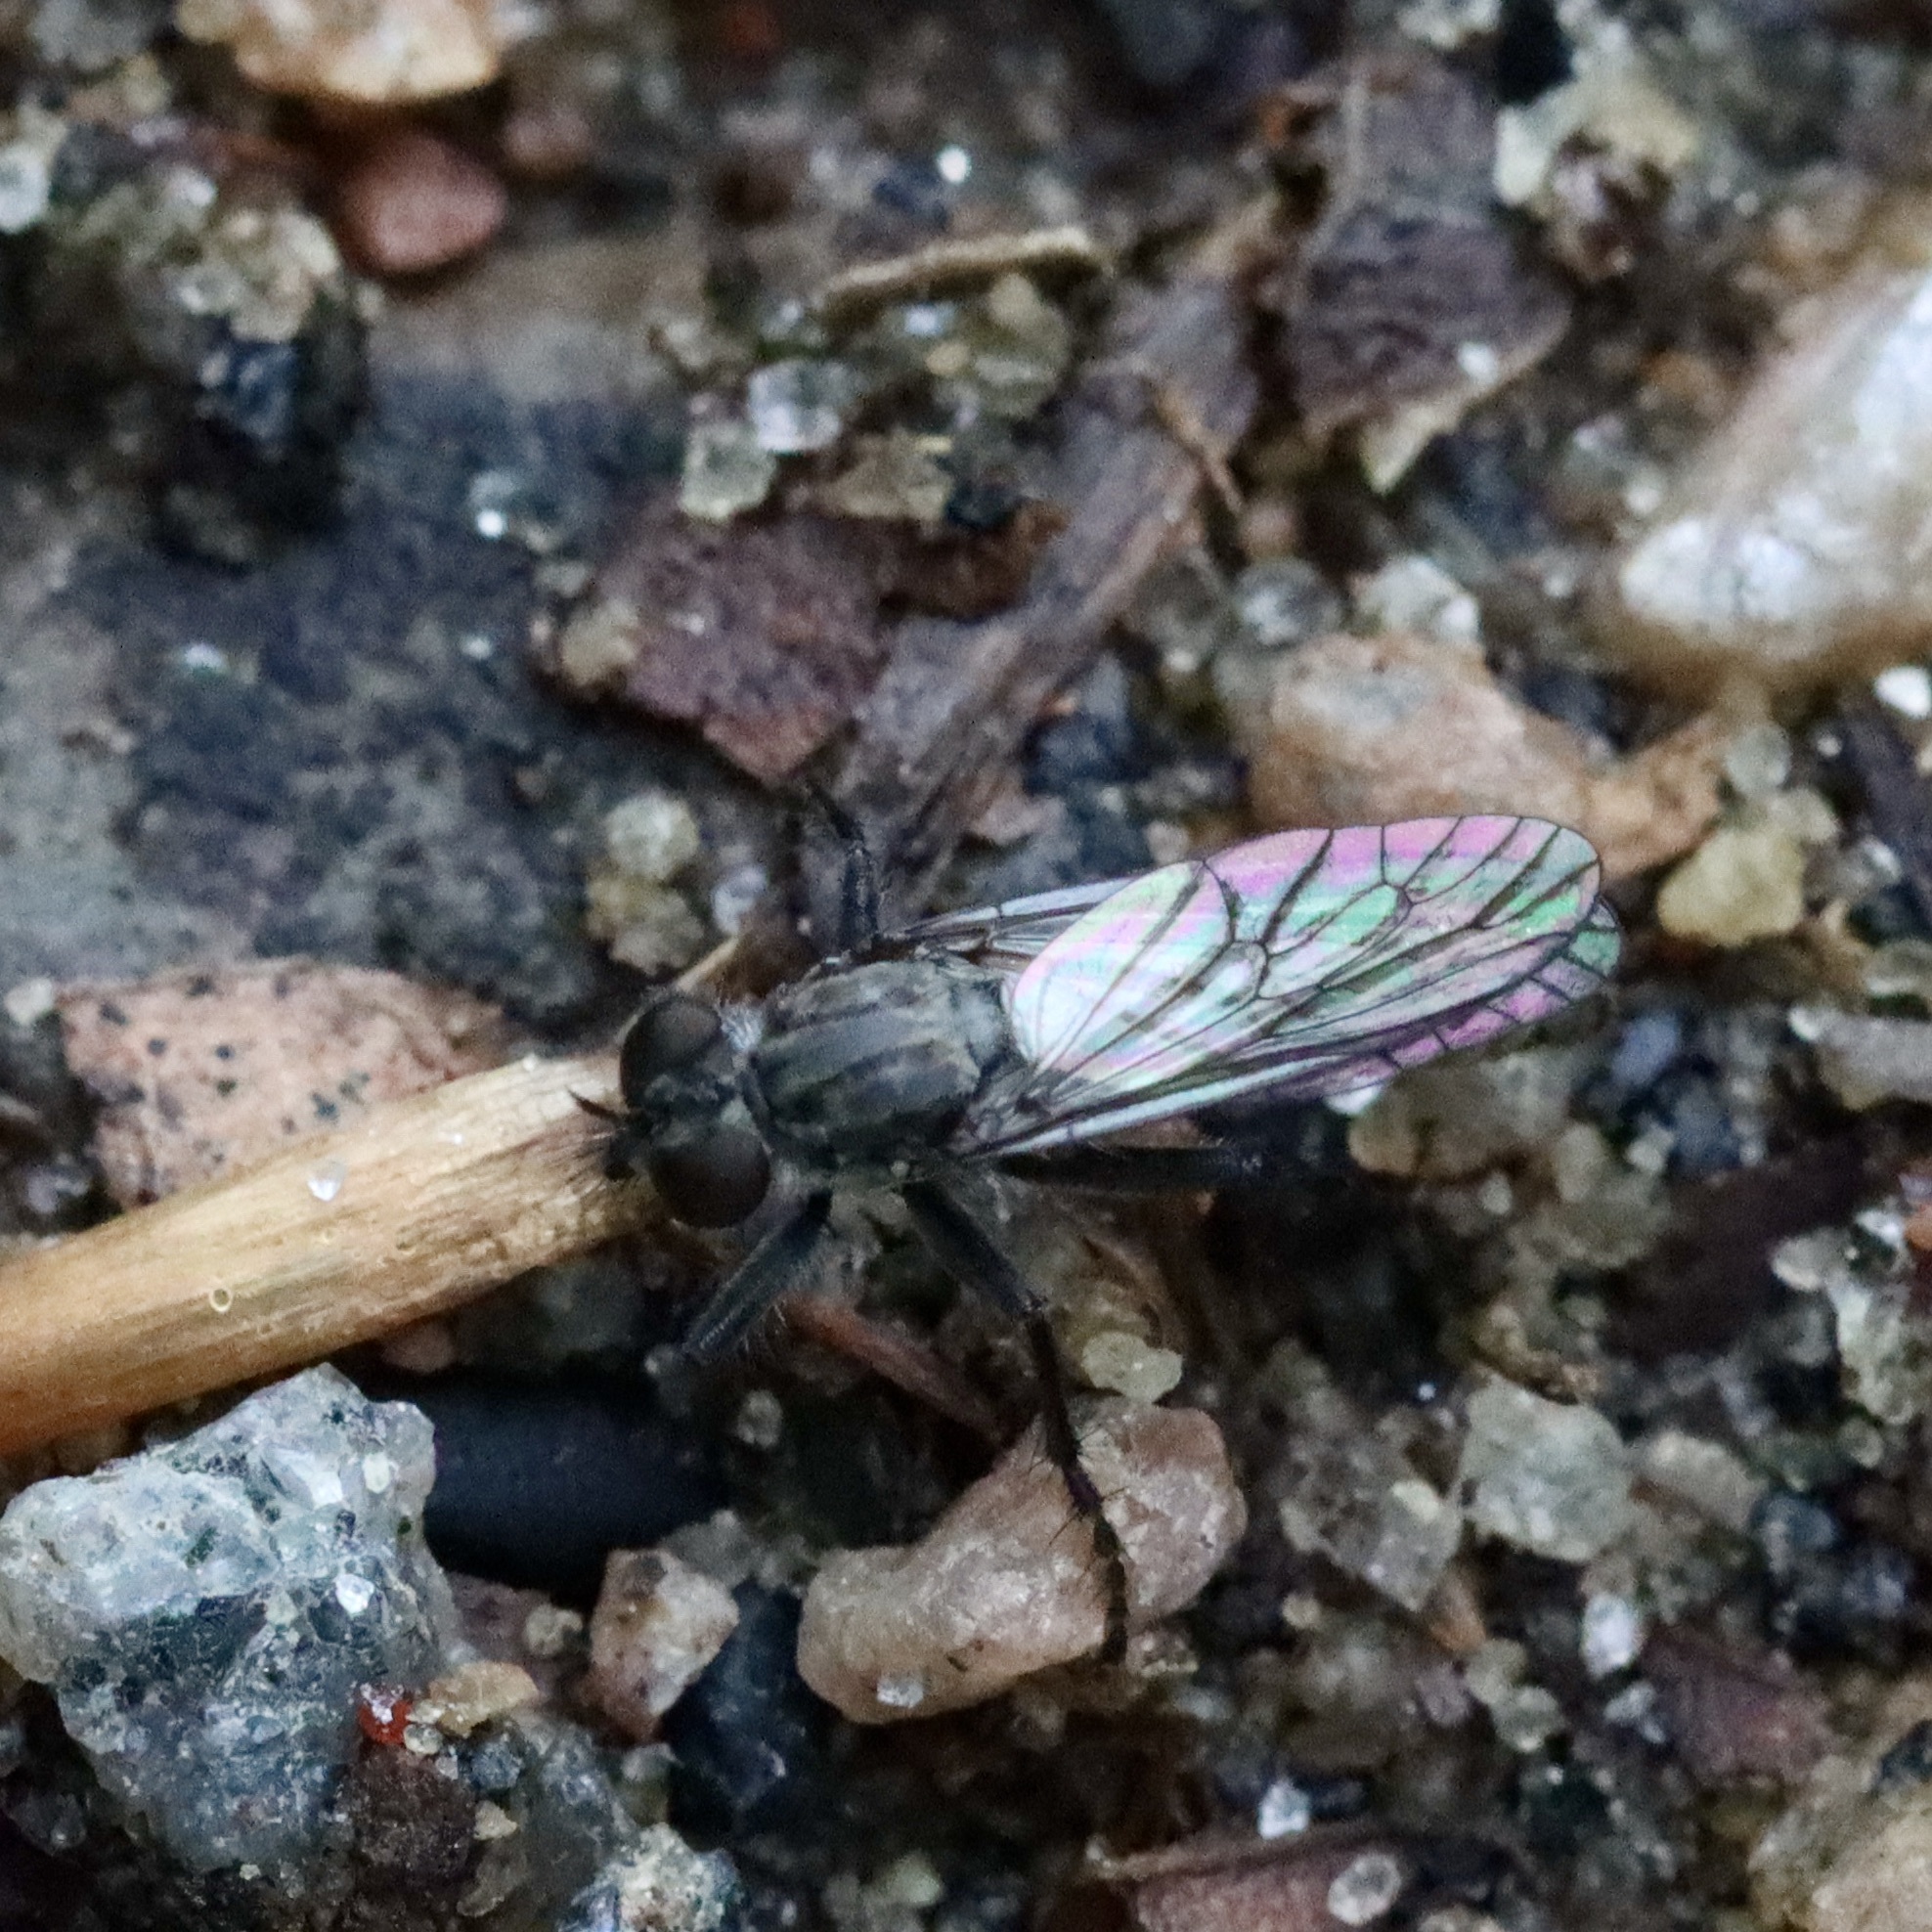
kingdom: Animalia
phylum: Arthropoda
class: Insecta
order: Diptera
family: Asilidae
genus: Lasiopogon
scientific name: Lasiopogon currani
